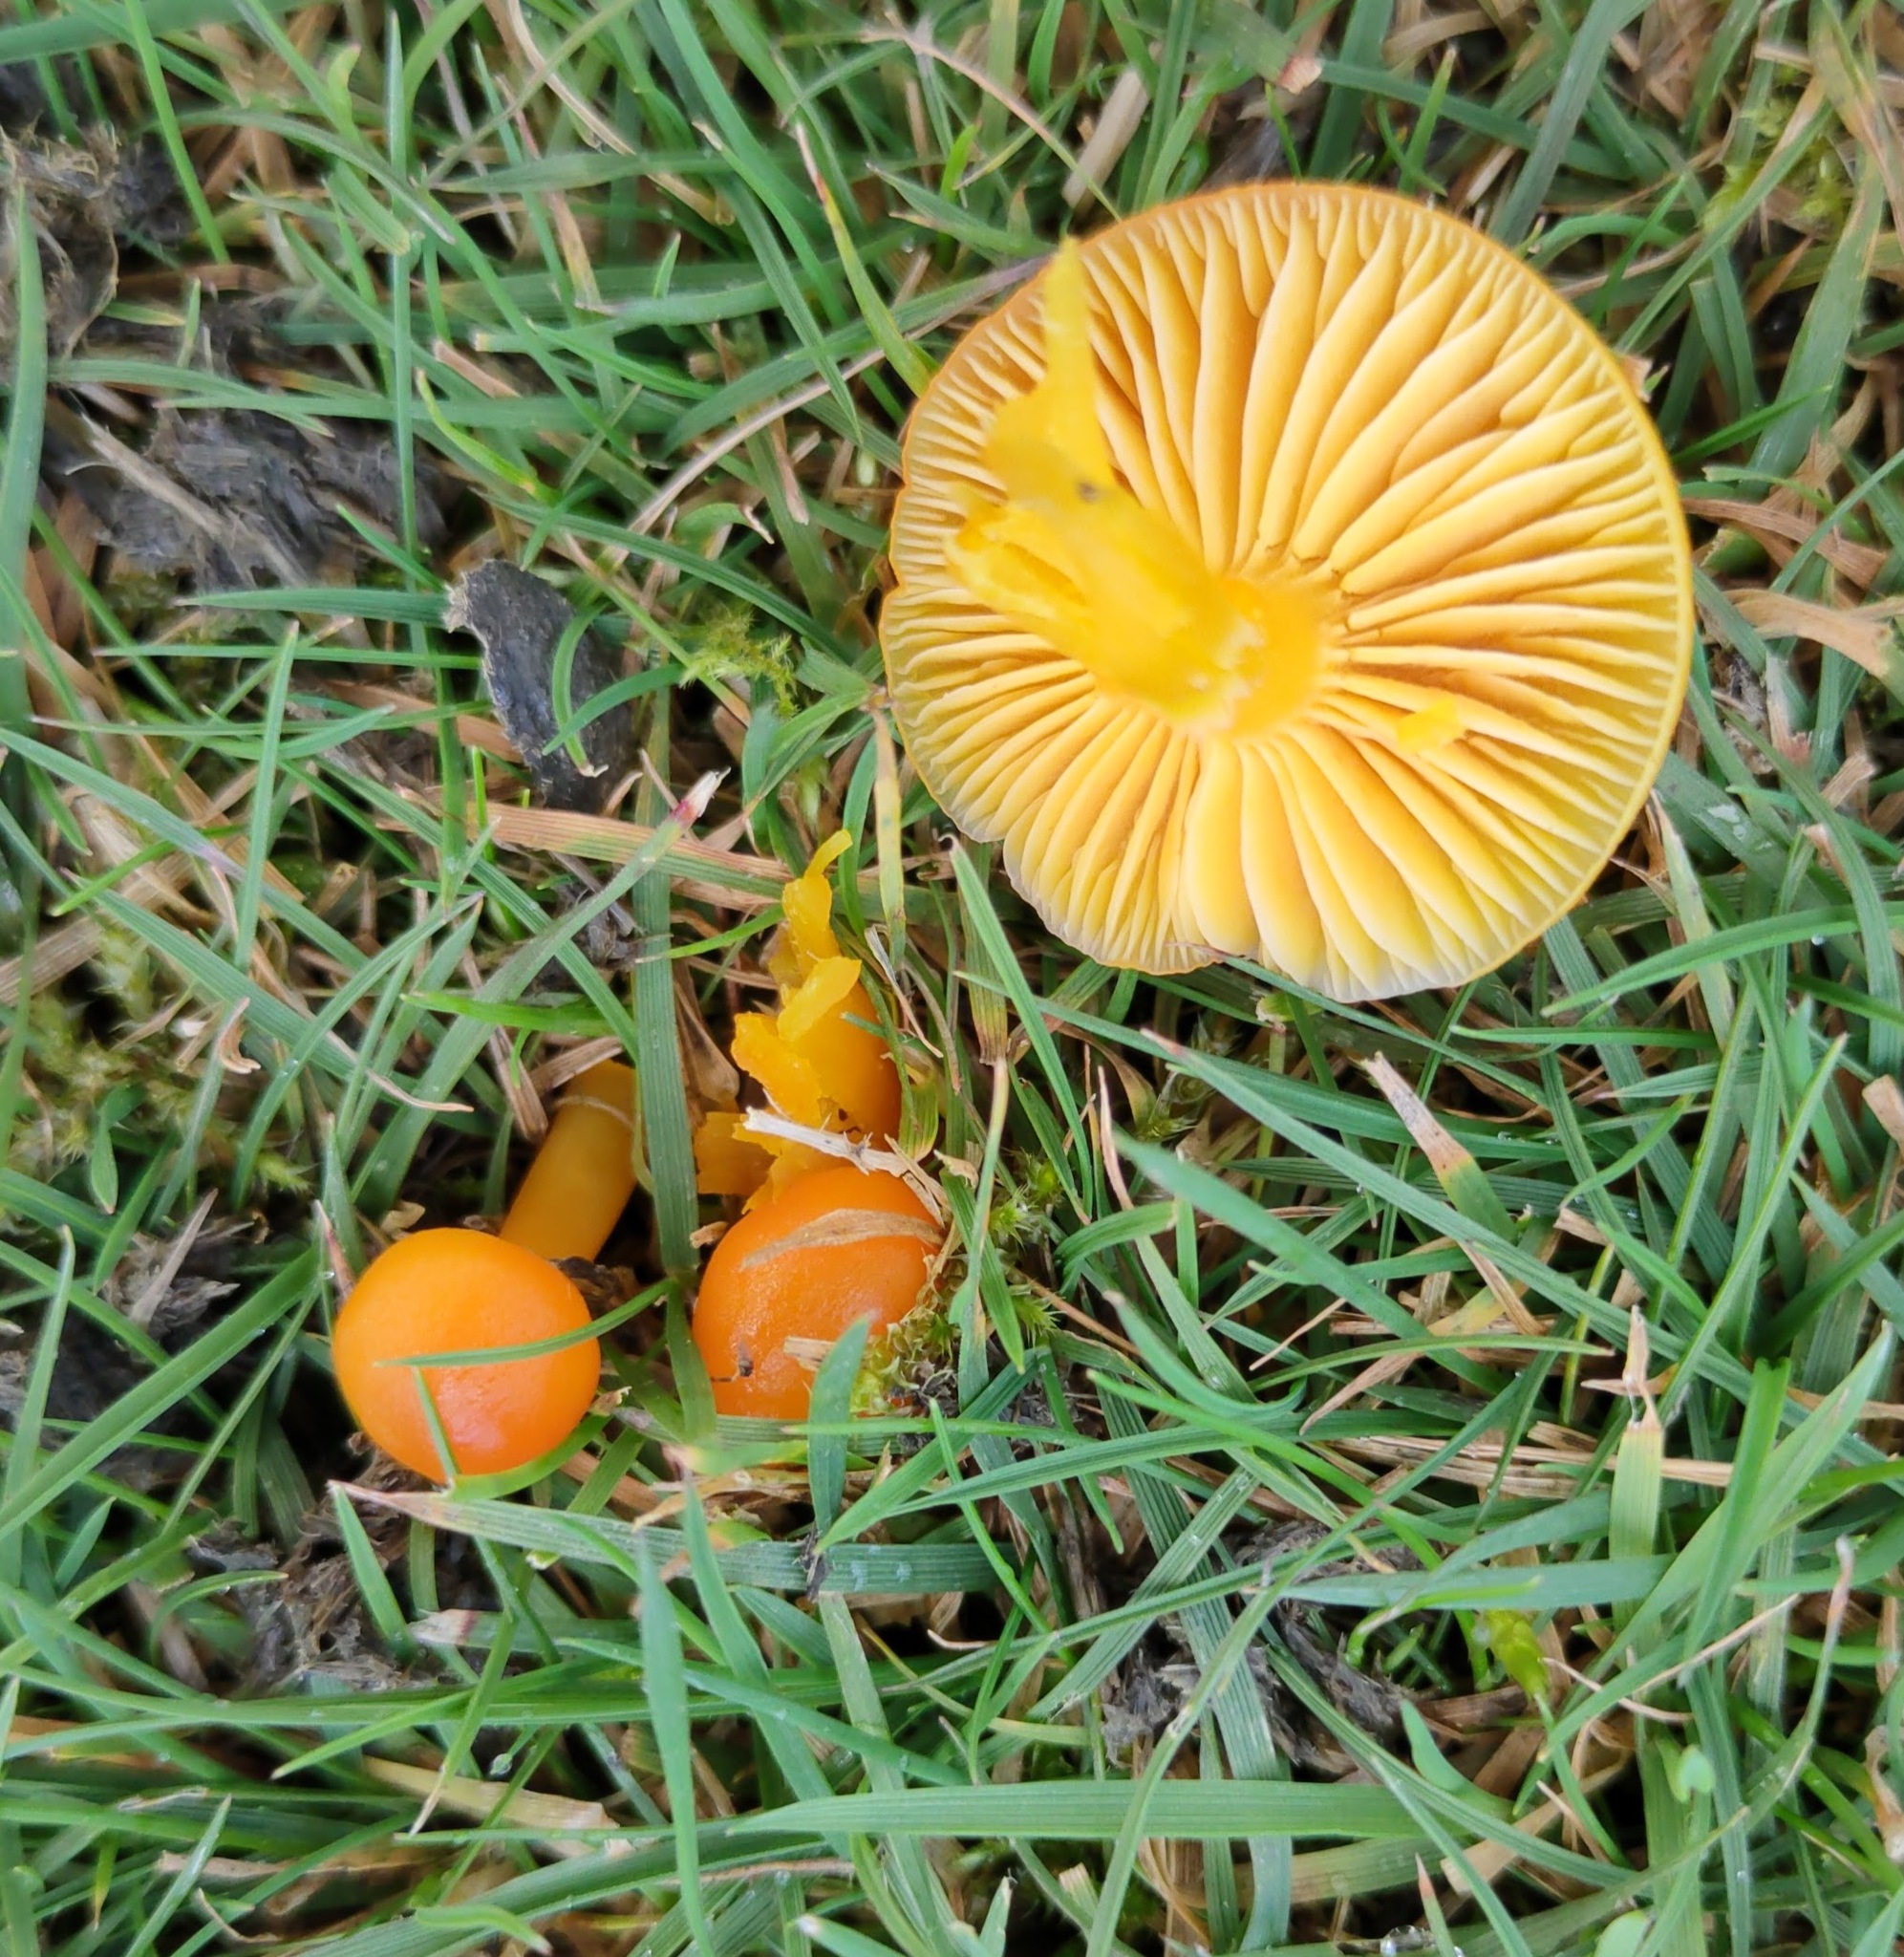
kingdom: Fungi
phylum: Basidiomycota
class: Agaricomycetes
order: Agaricales
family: Hygrophoraceae
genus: Hygrocybe
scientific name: Hygrocybe ceracea
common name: Butter waxcap
